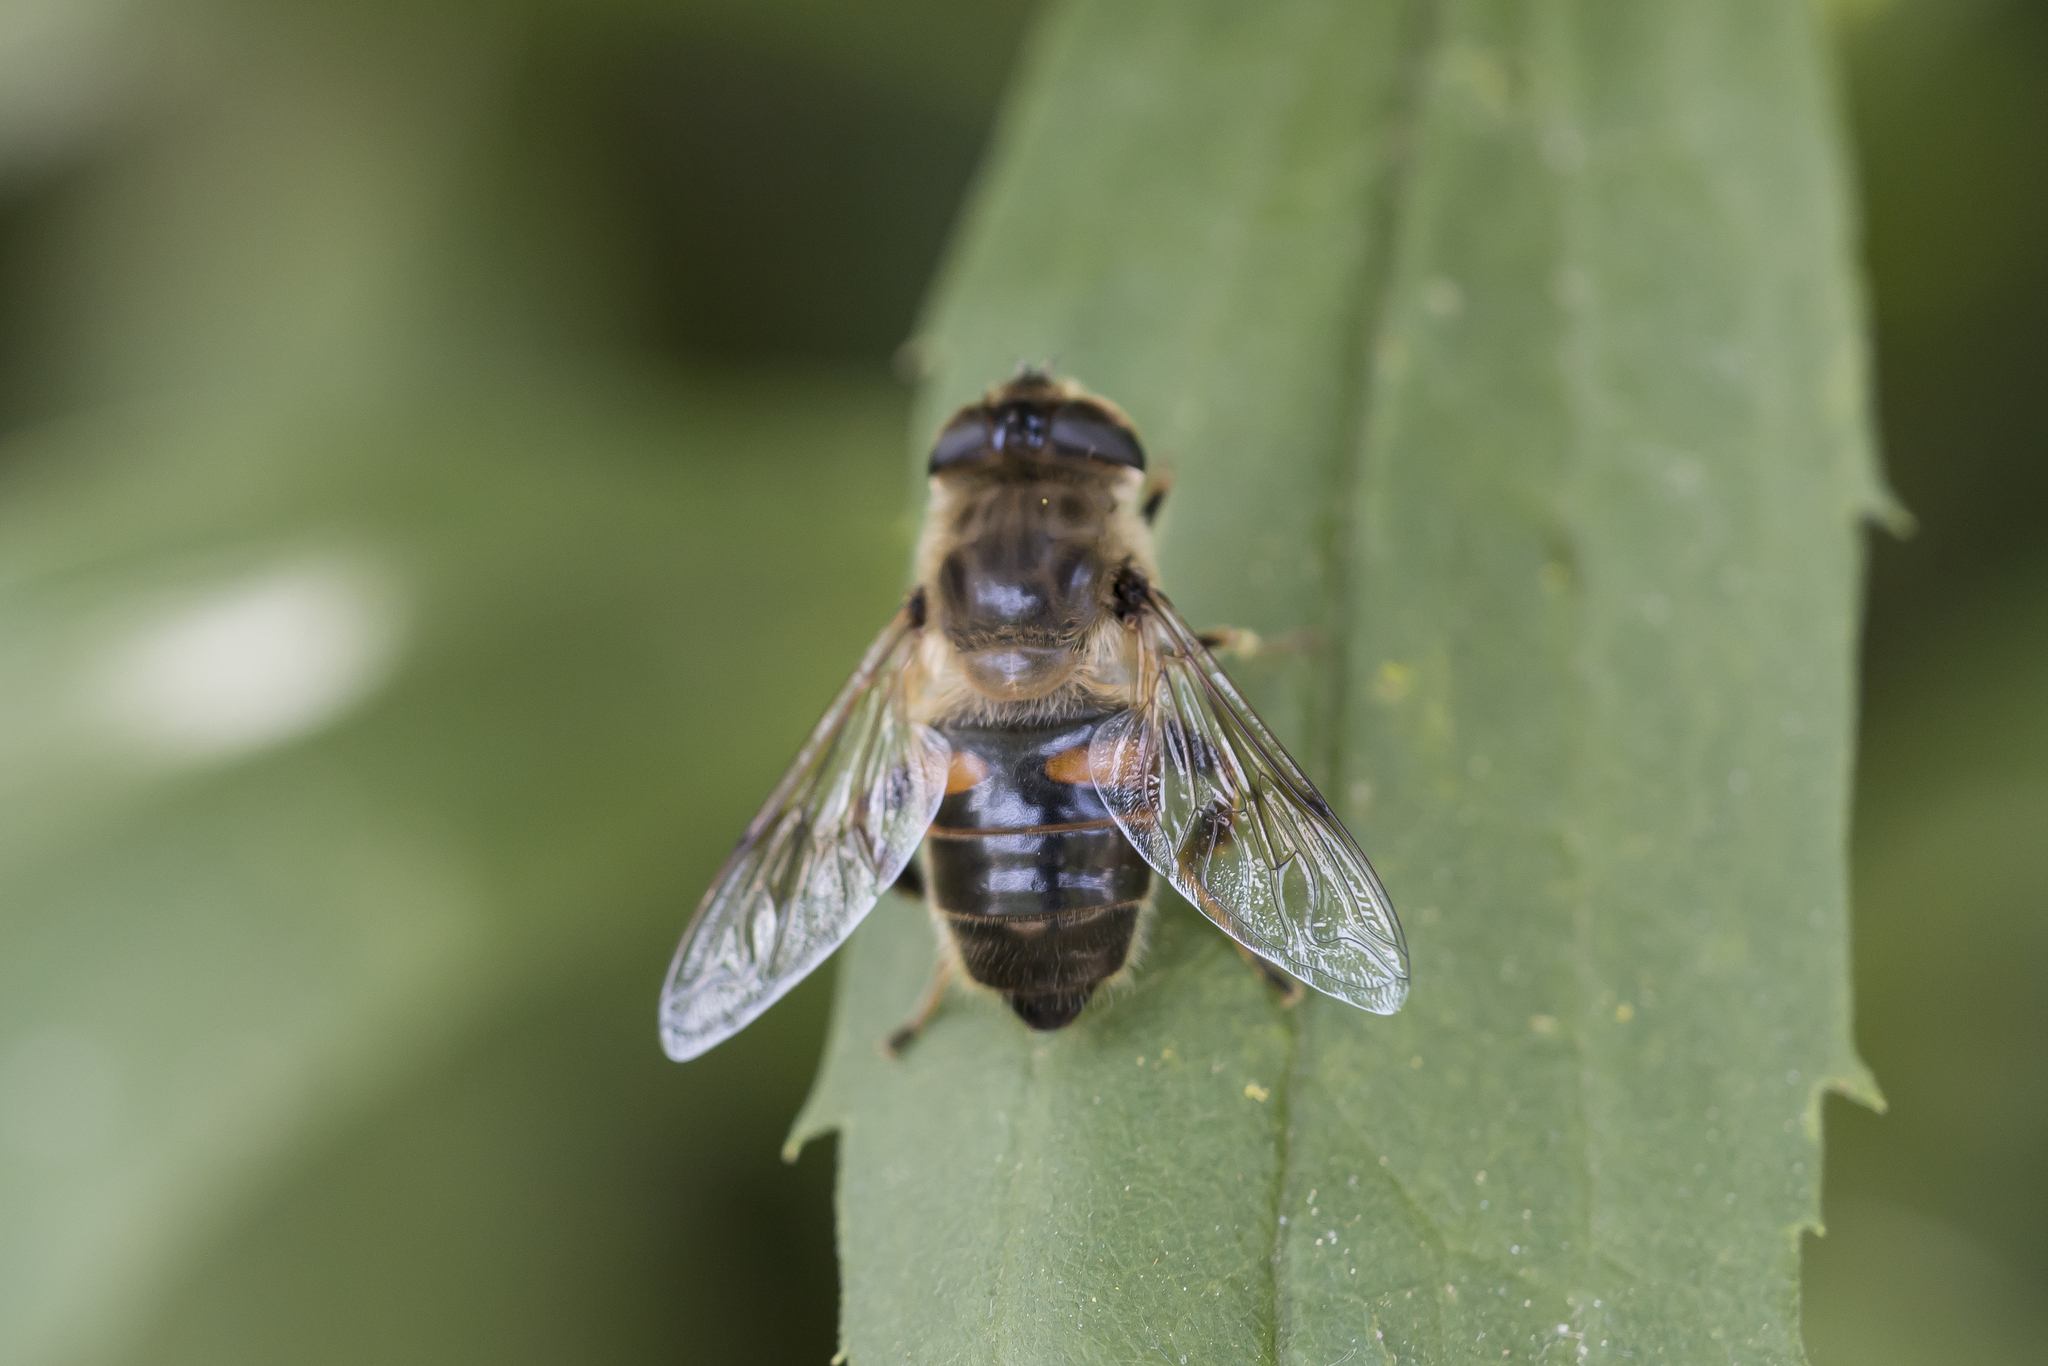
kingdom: Animalia
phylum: Arthropoda
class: Insecta
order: Diptera
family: Syrphidae
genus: Eristalis
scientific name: Eristalis tenax
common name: Drone fly
